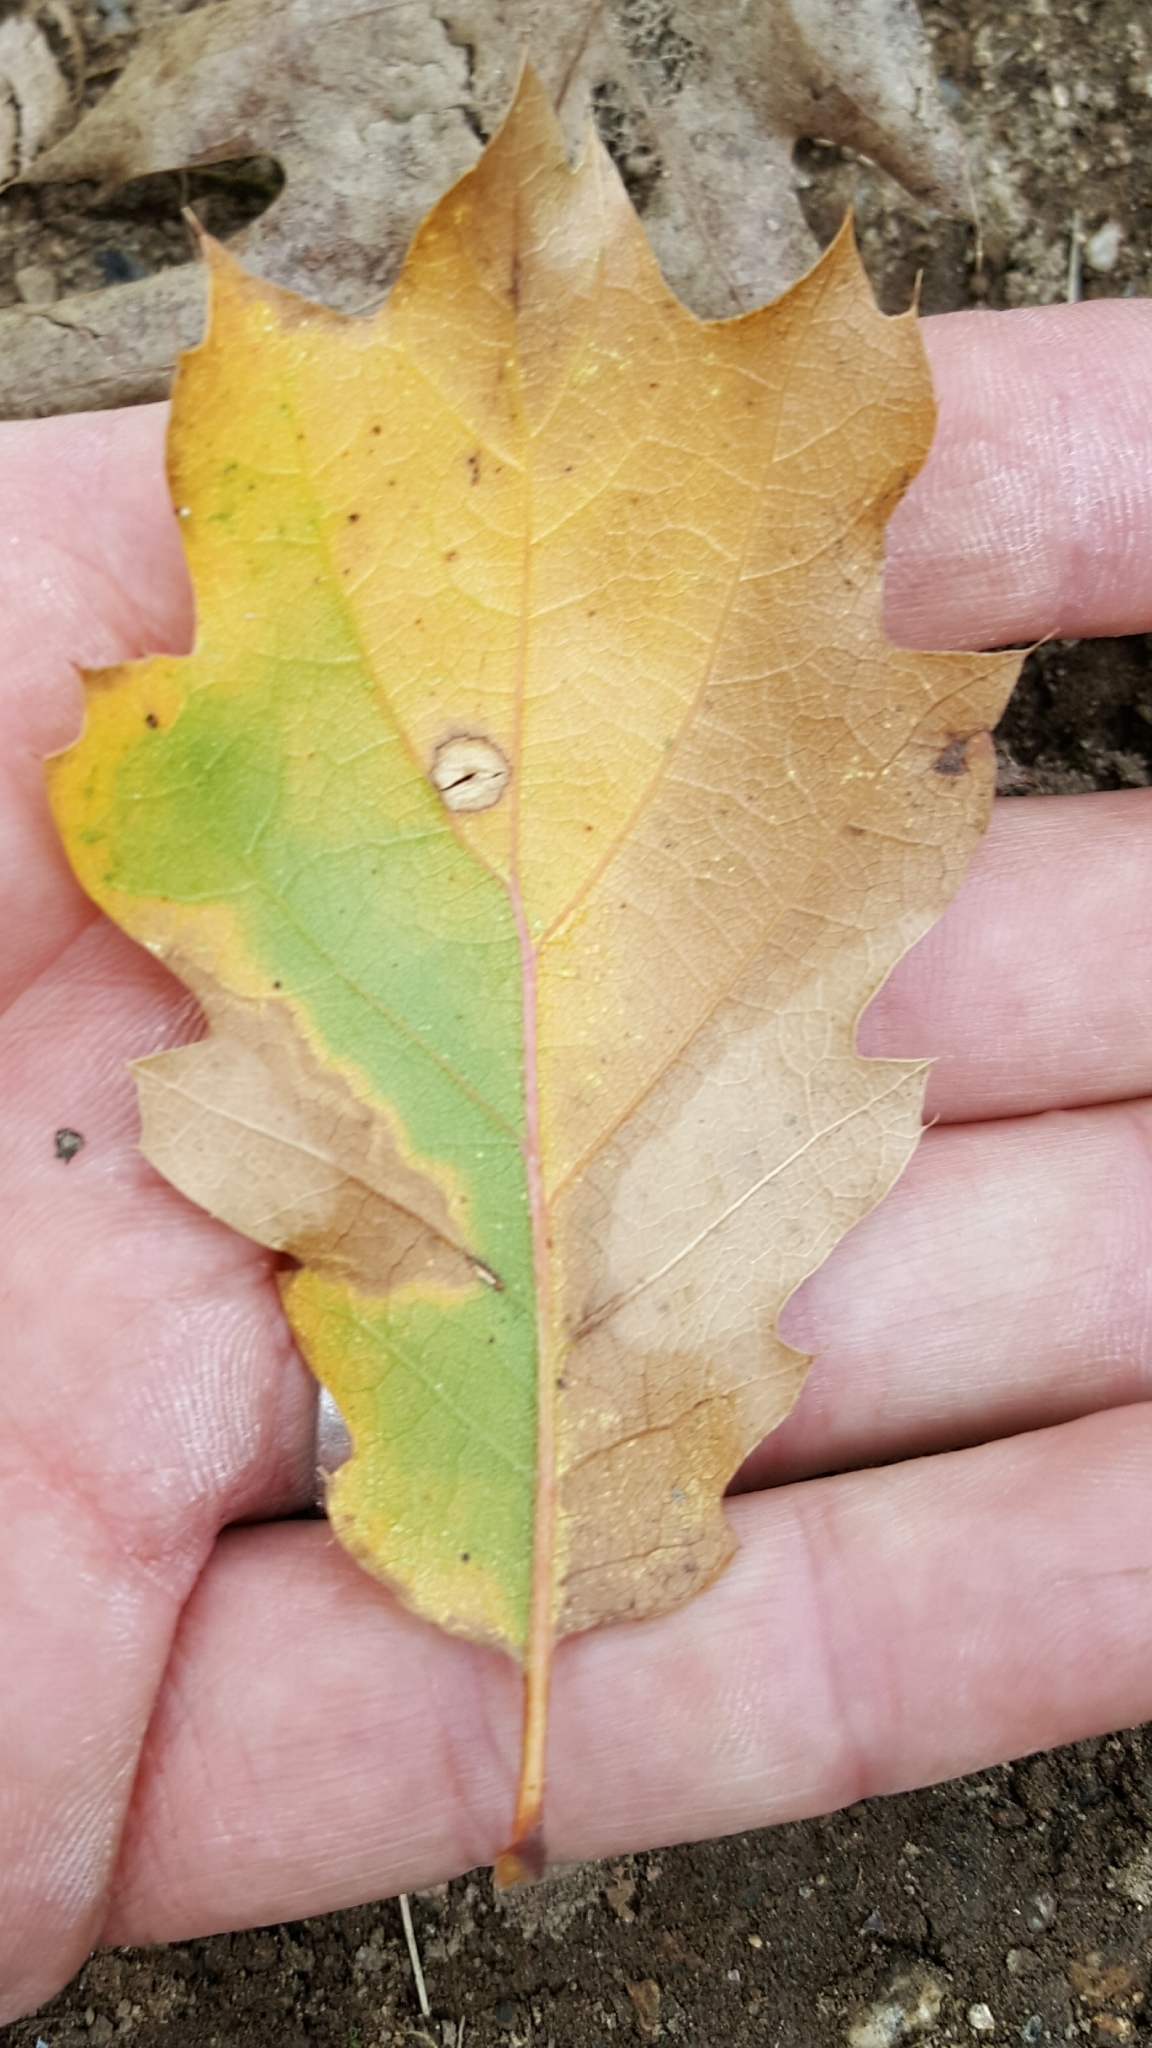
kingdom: Plantae
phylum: Tracheophyta
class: Magnoliopsida
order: Fagales
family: Fagaceae
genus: Quercus
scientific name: Quercus kelloggii
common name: California black oak
